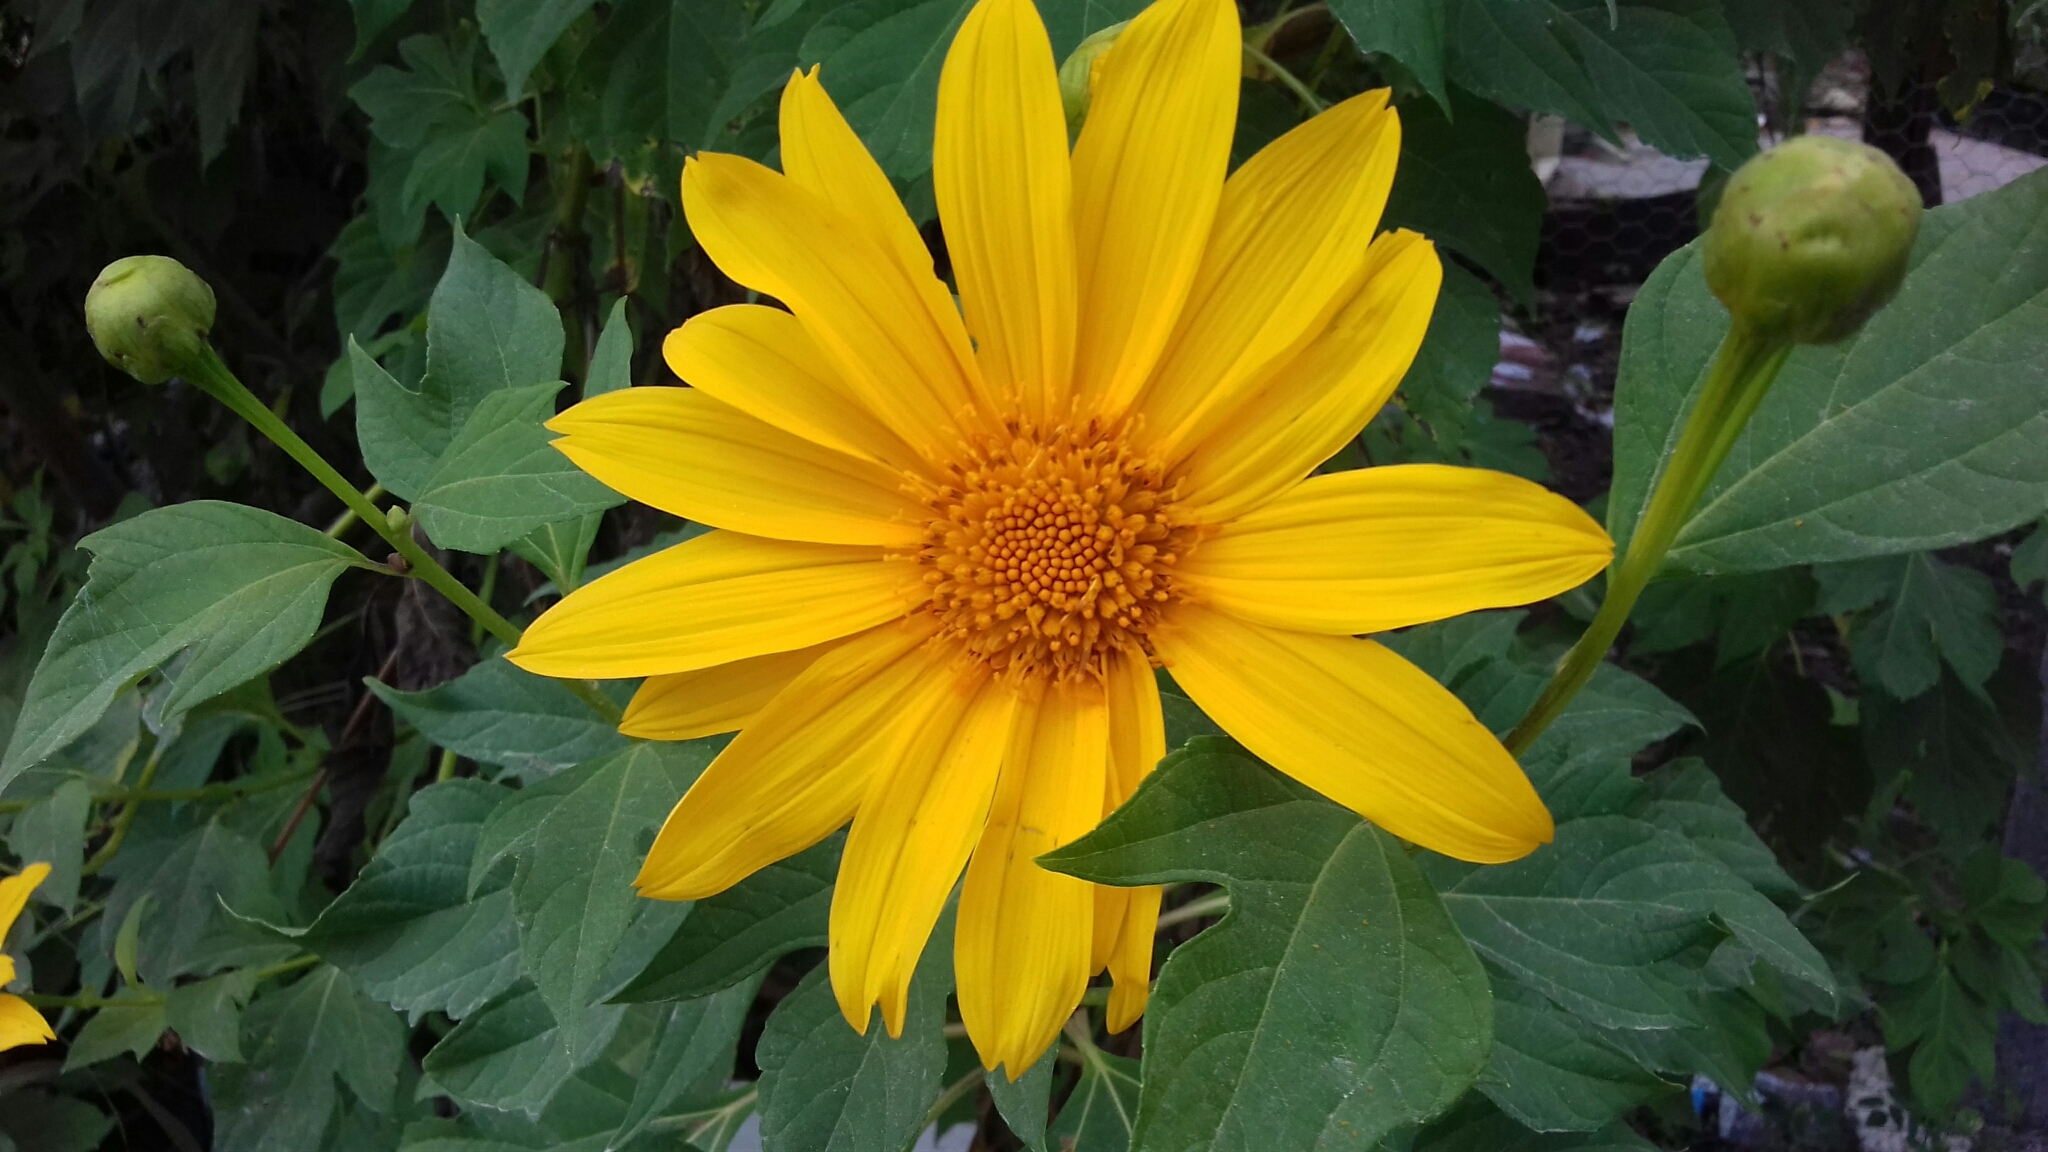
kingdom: Plantae
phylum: Tracheophyta
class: Magnoliopsida
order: Asterales
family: Asteraceae
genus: Tithonia
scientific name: Tithonia diversifolia
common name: Tree marigold
